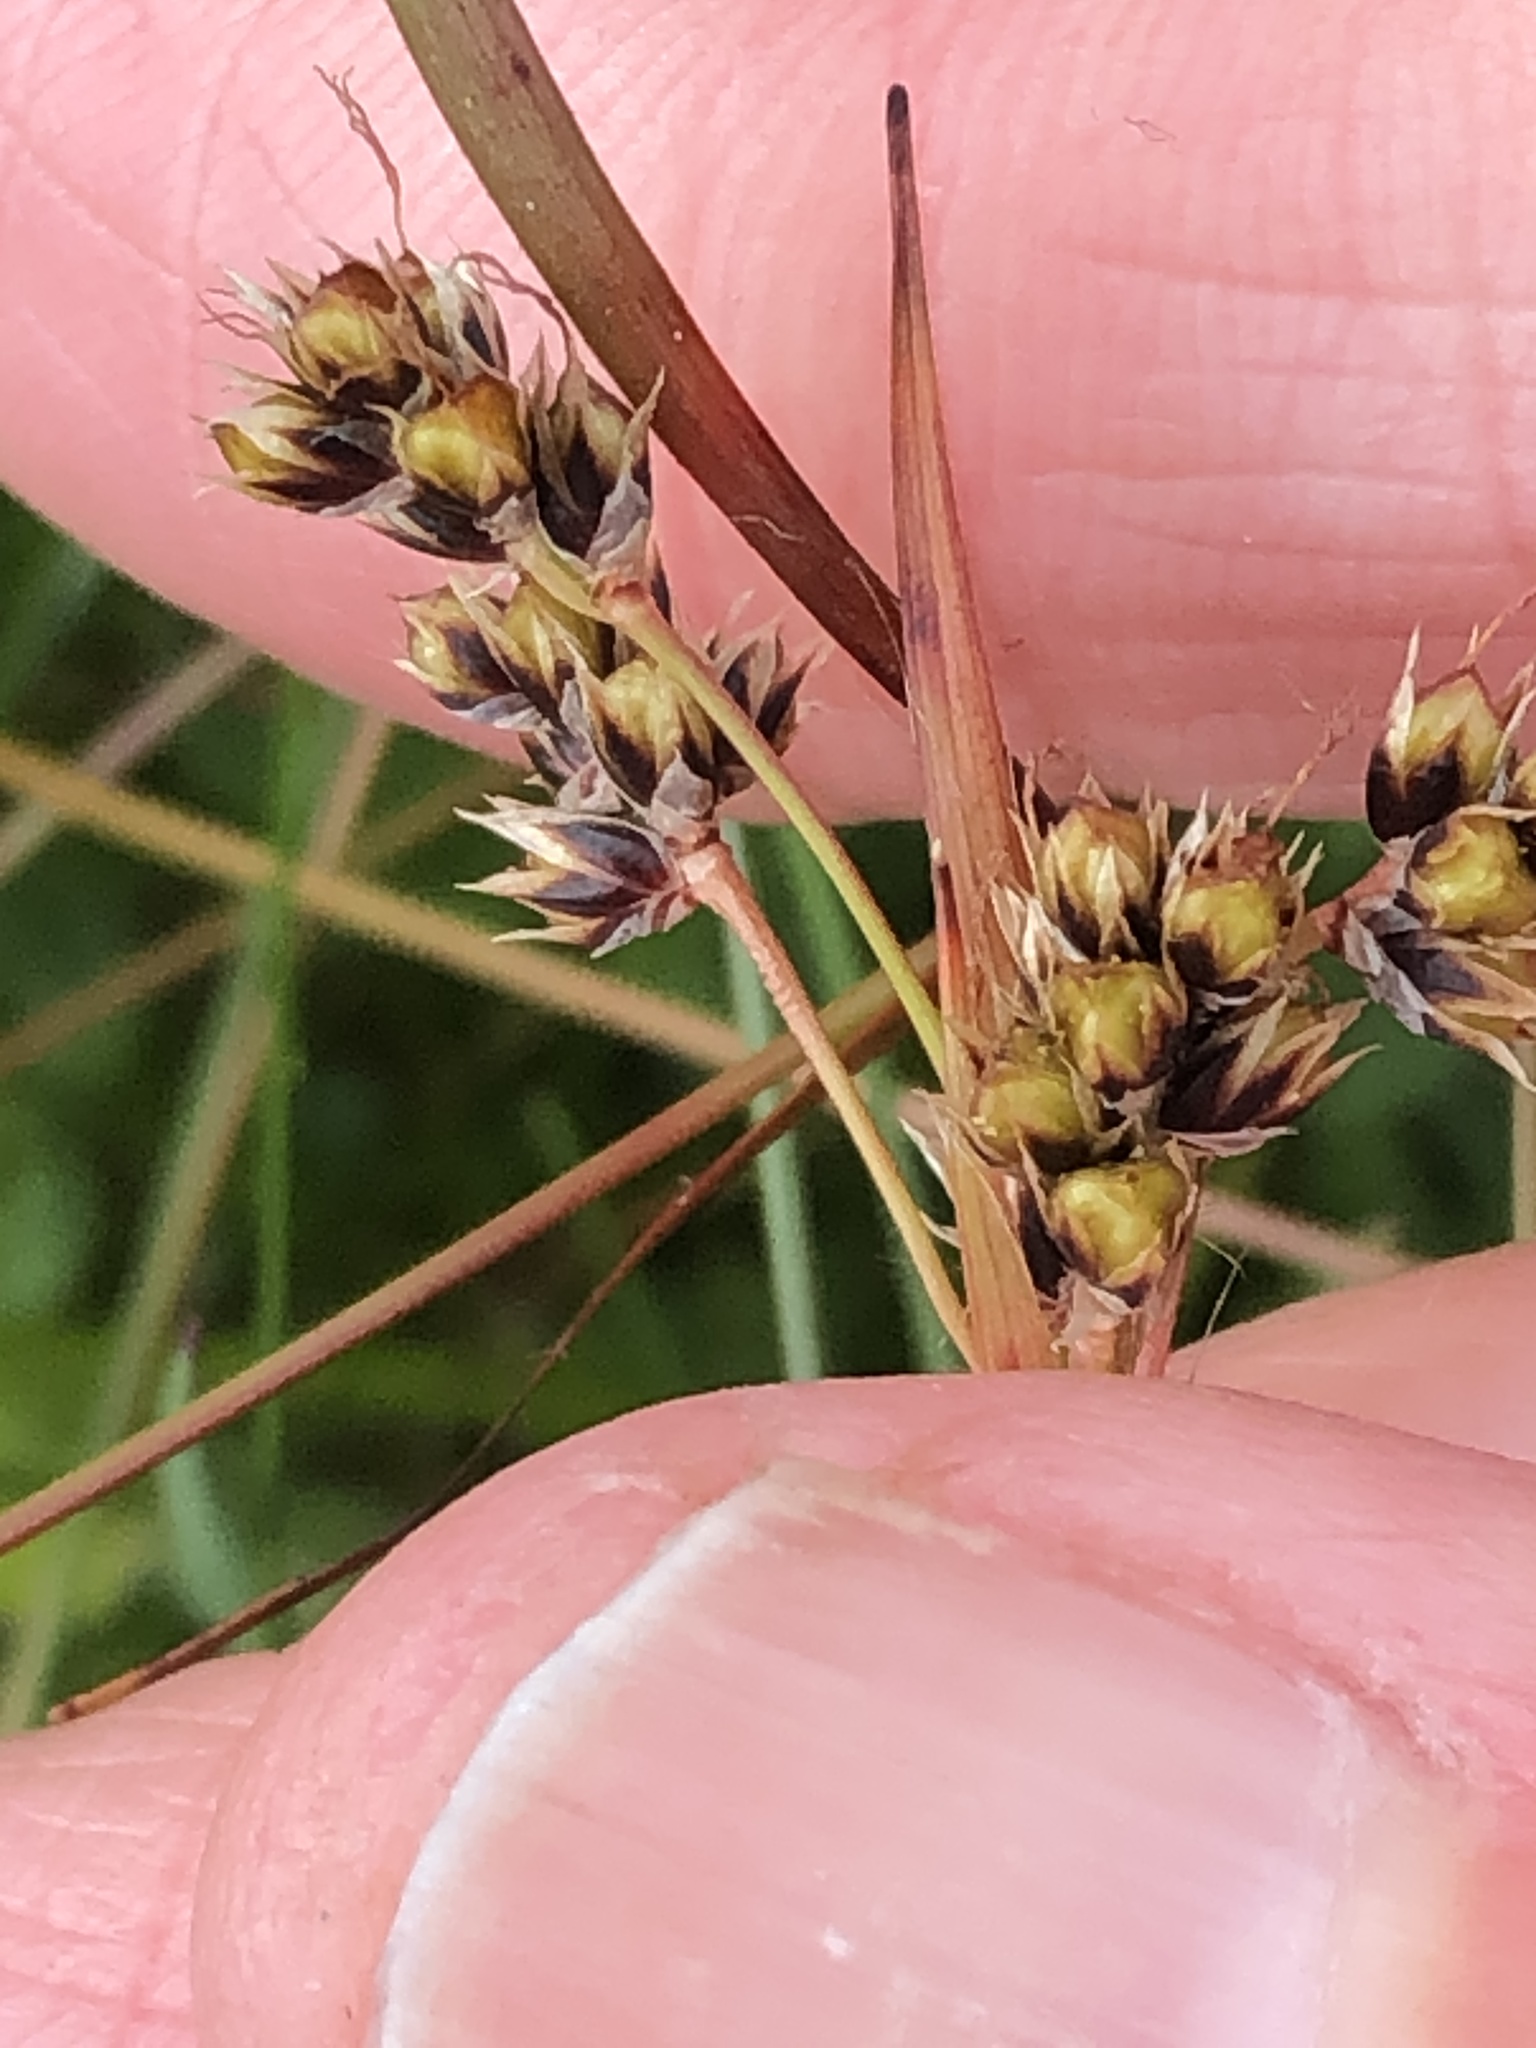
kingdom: Plantae
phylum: Tracheophyta
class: Liliopsida
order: Poales
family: Juncaceae
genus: Luzula
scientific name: Luzula campestris
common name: Field wood-rush
